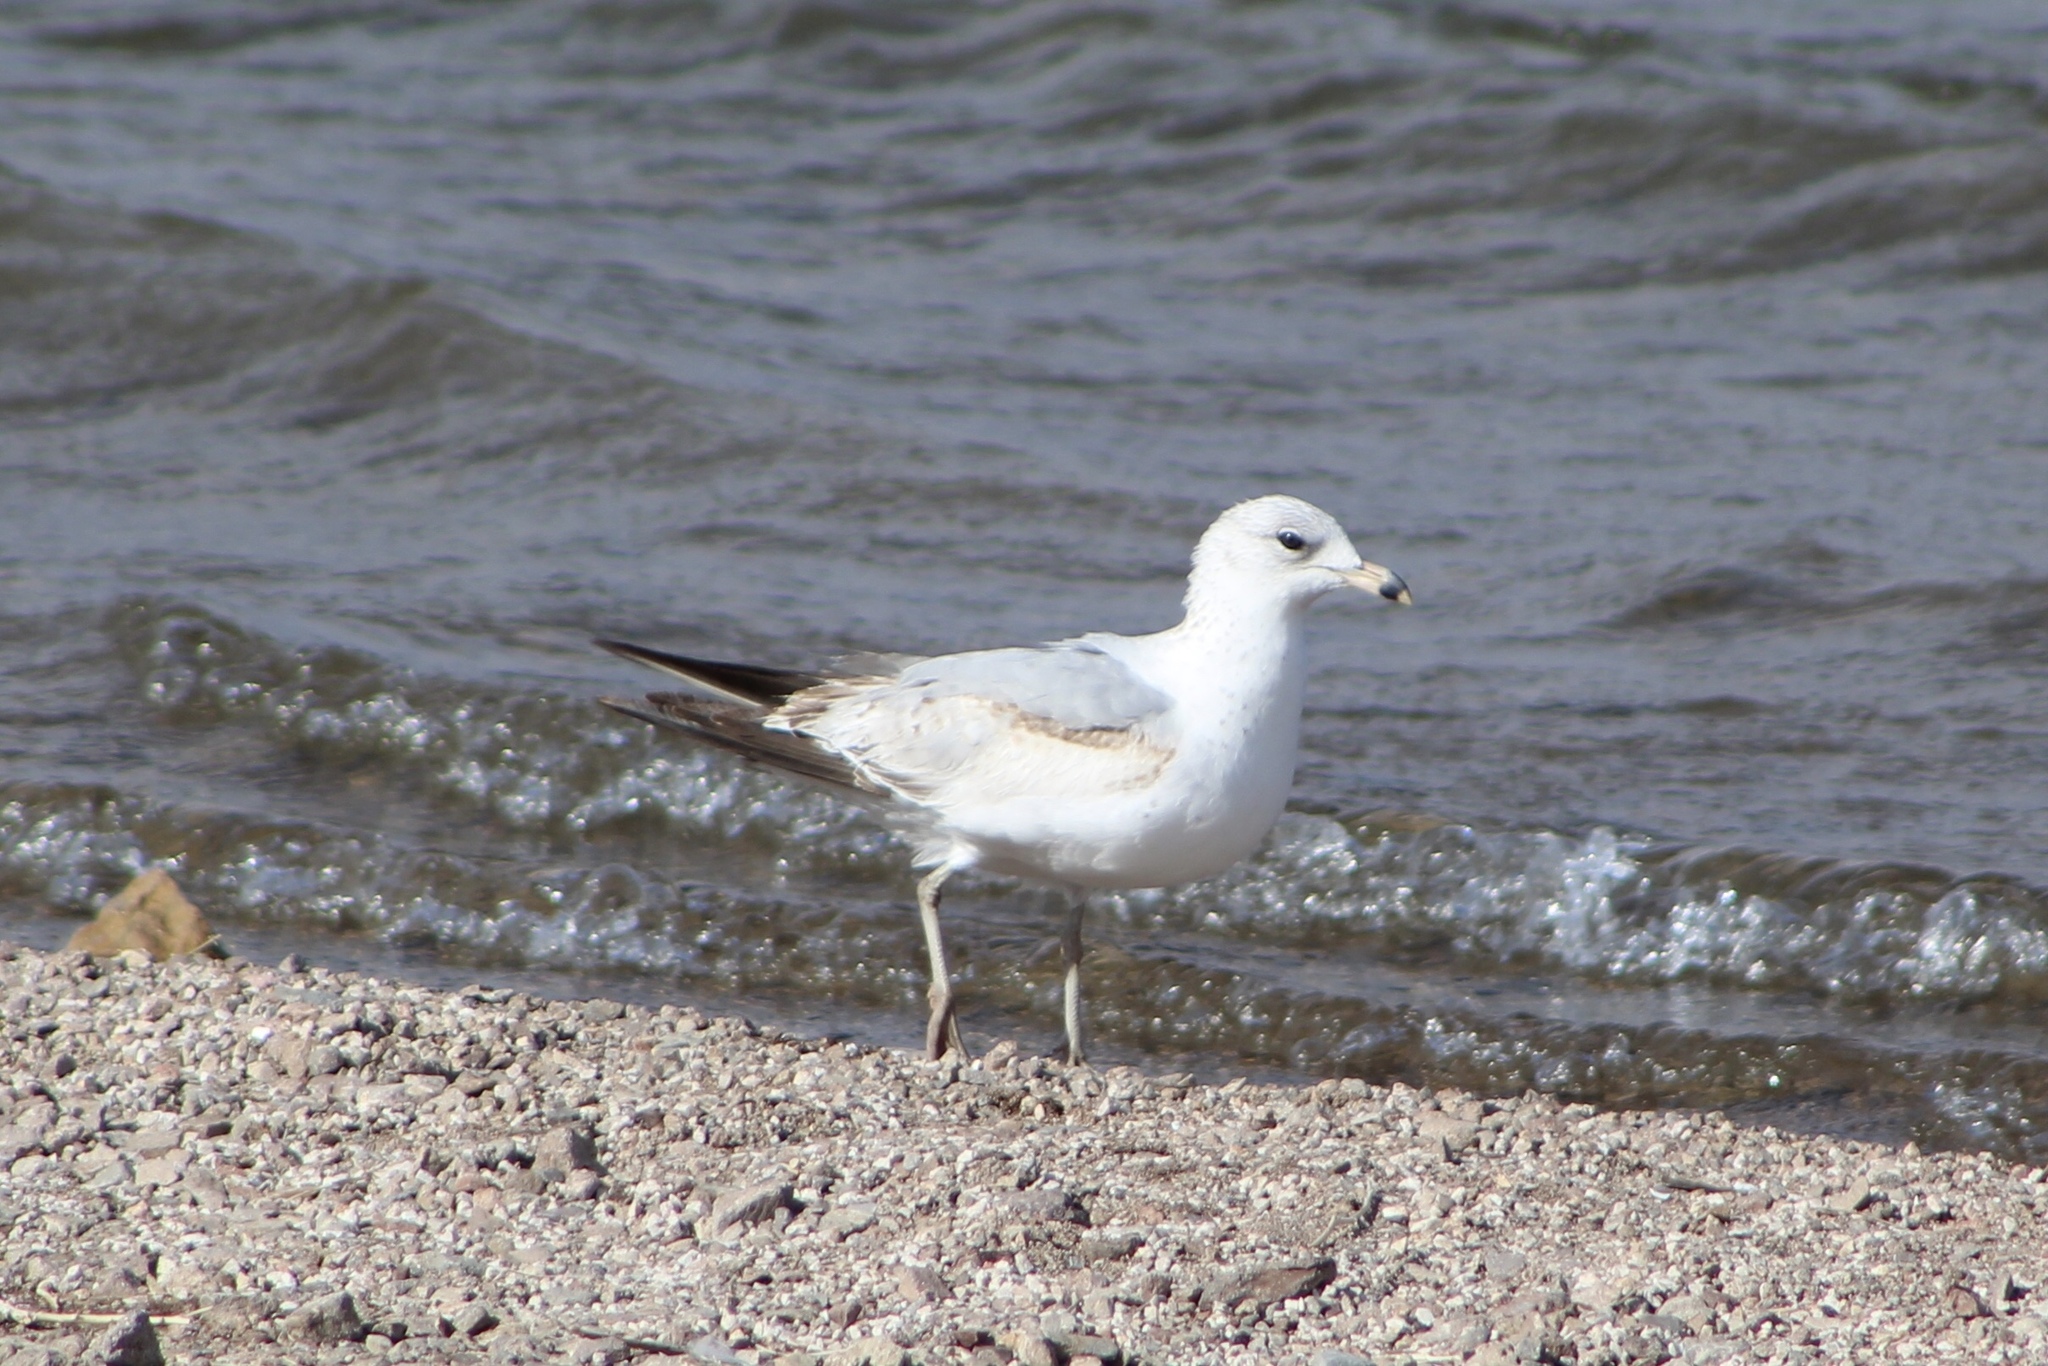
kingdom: Animalia
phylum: Chordata
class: Aves
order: Charadriiformes
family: Laridae
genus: Larus
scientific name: Larus delawarensis
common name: Ring-billed gull
